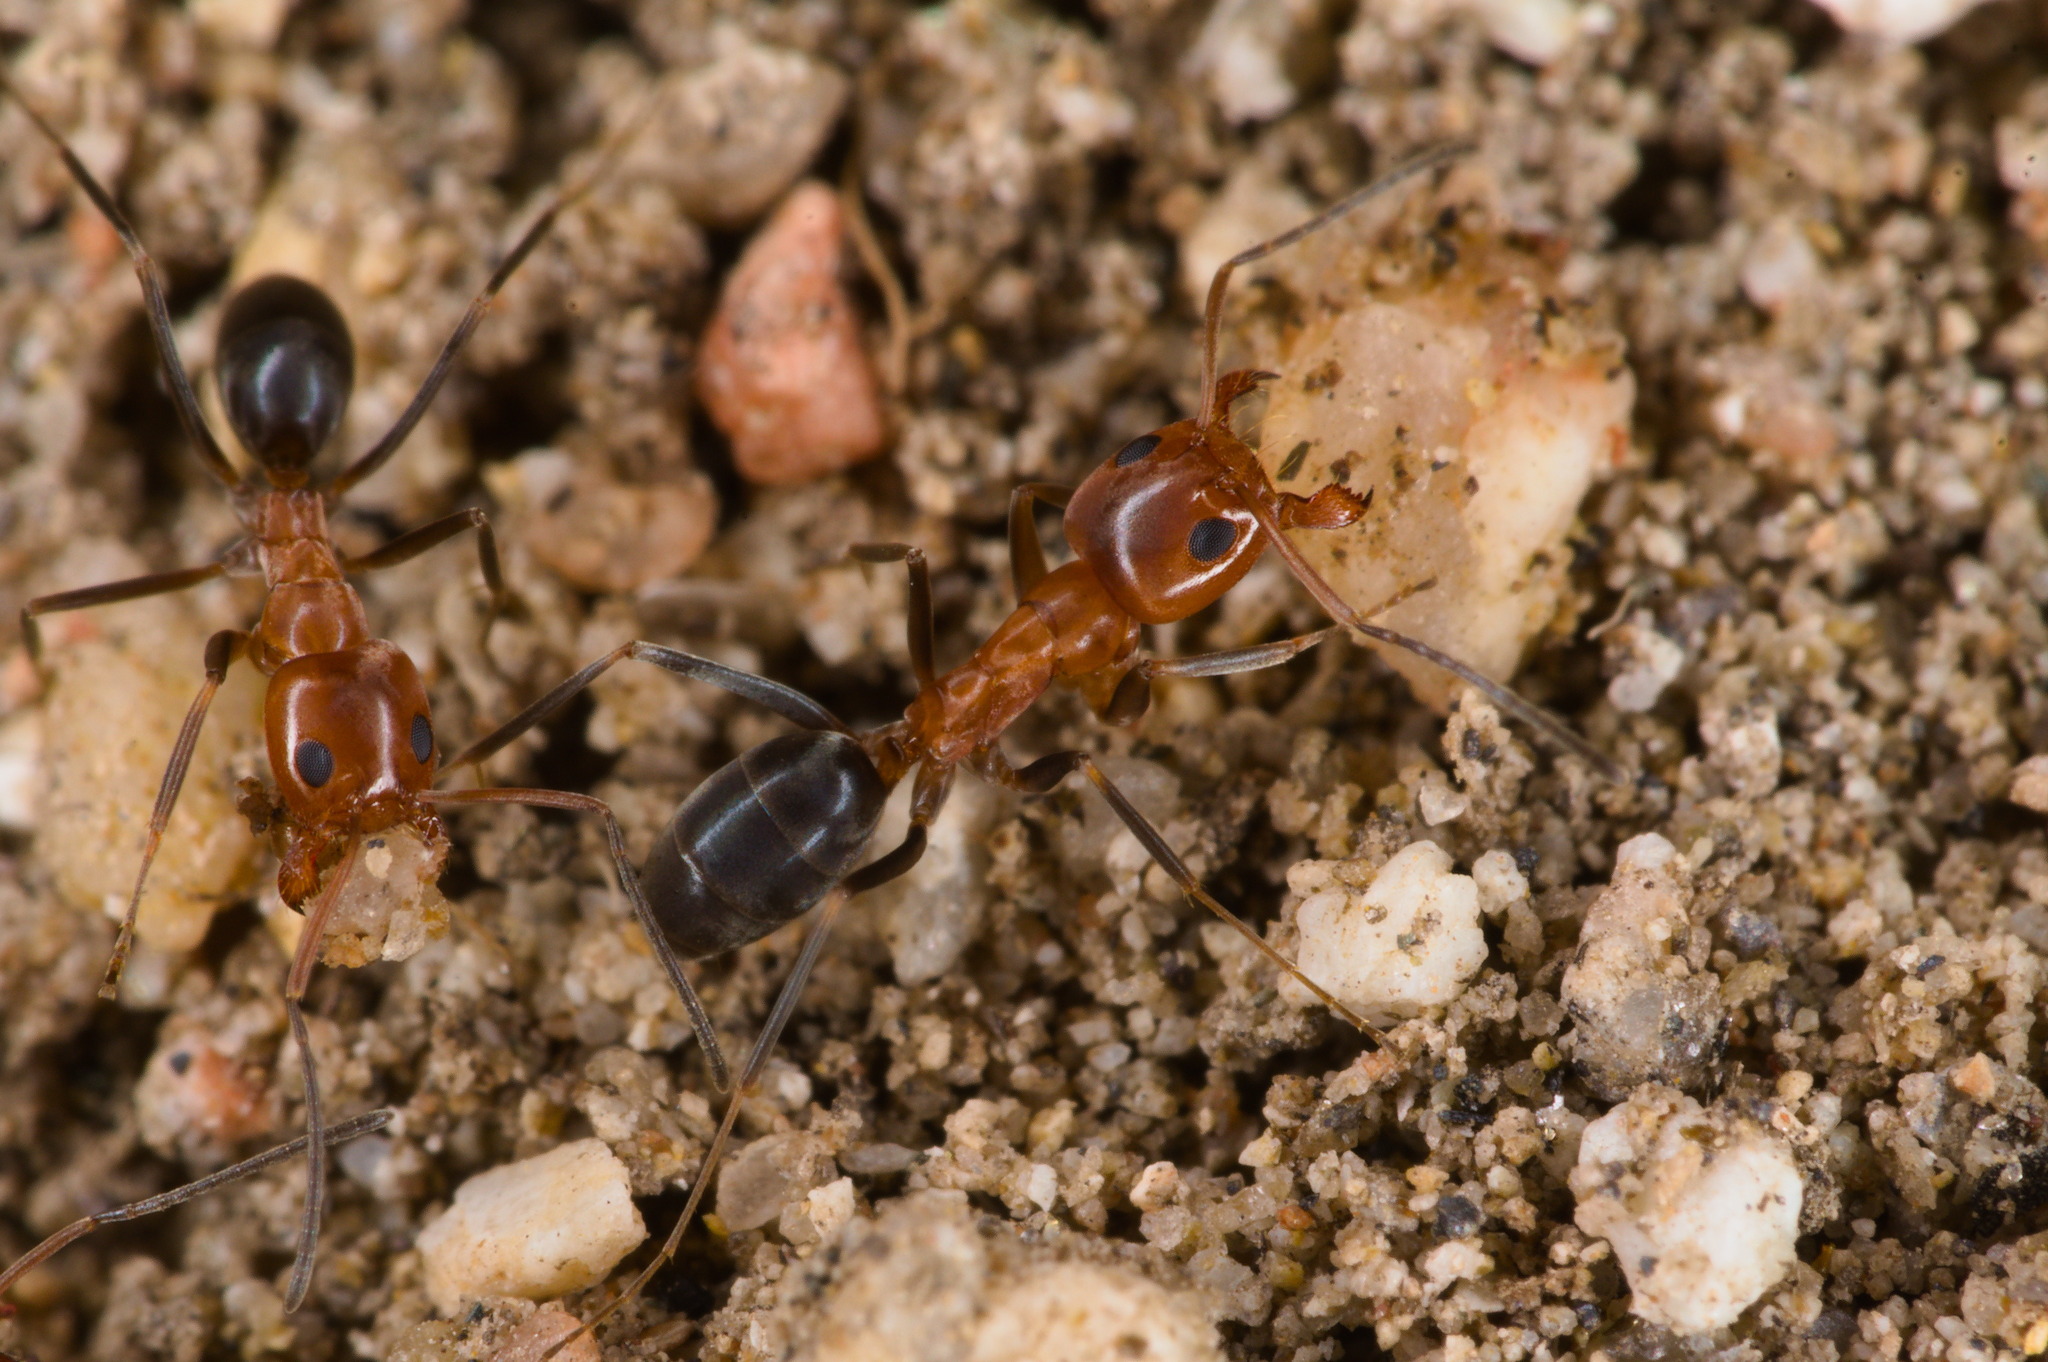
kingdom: Animalia
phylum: Arthropoda
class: Insecta
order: Hymenoptera
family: Formicidae
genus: Dorymyrmex
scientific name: Dorymyrmex bicolor
